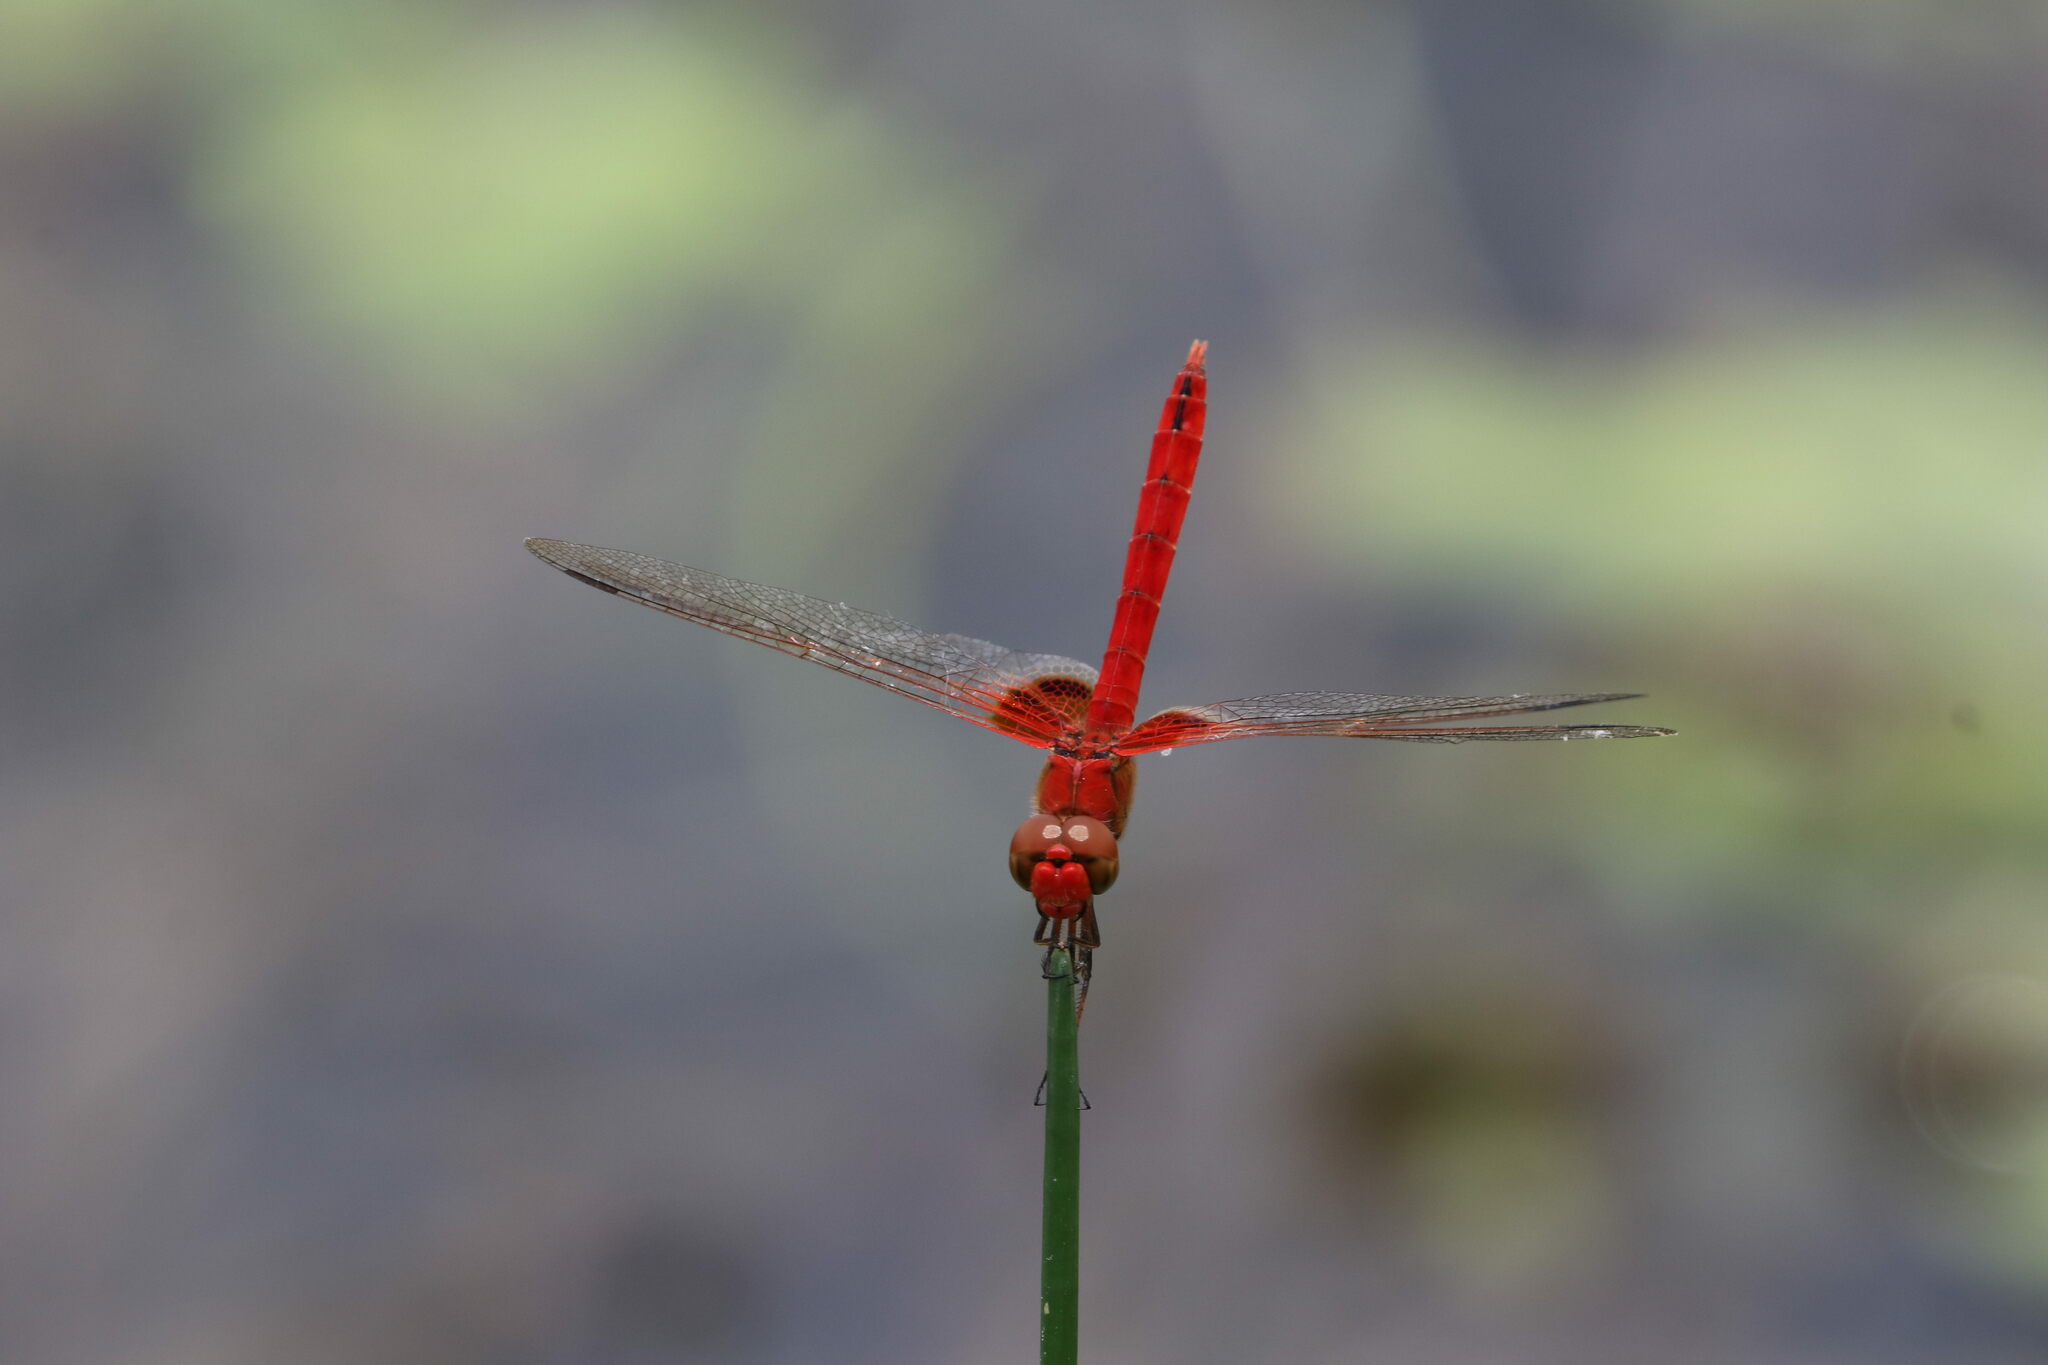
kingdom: Animalia
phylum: Arthropoda
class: Insecta
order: Odonata
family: Libellulidae
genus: Urothemis
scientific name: Urothemis signata
